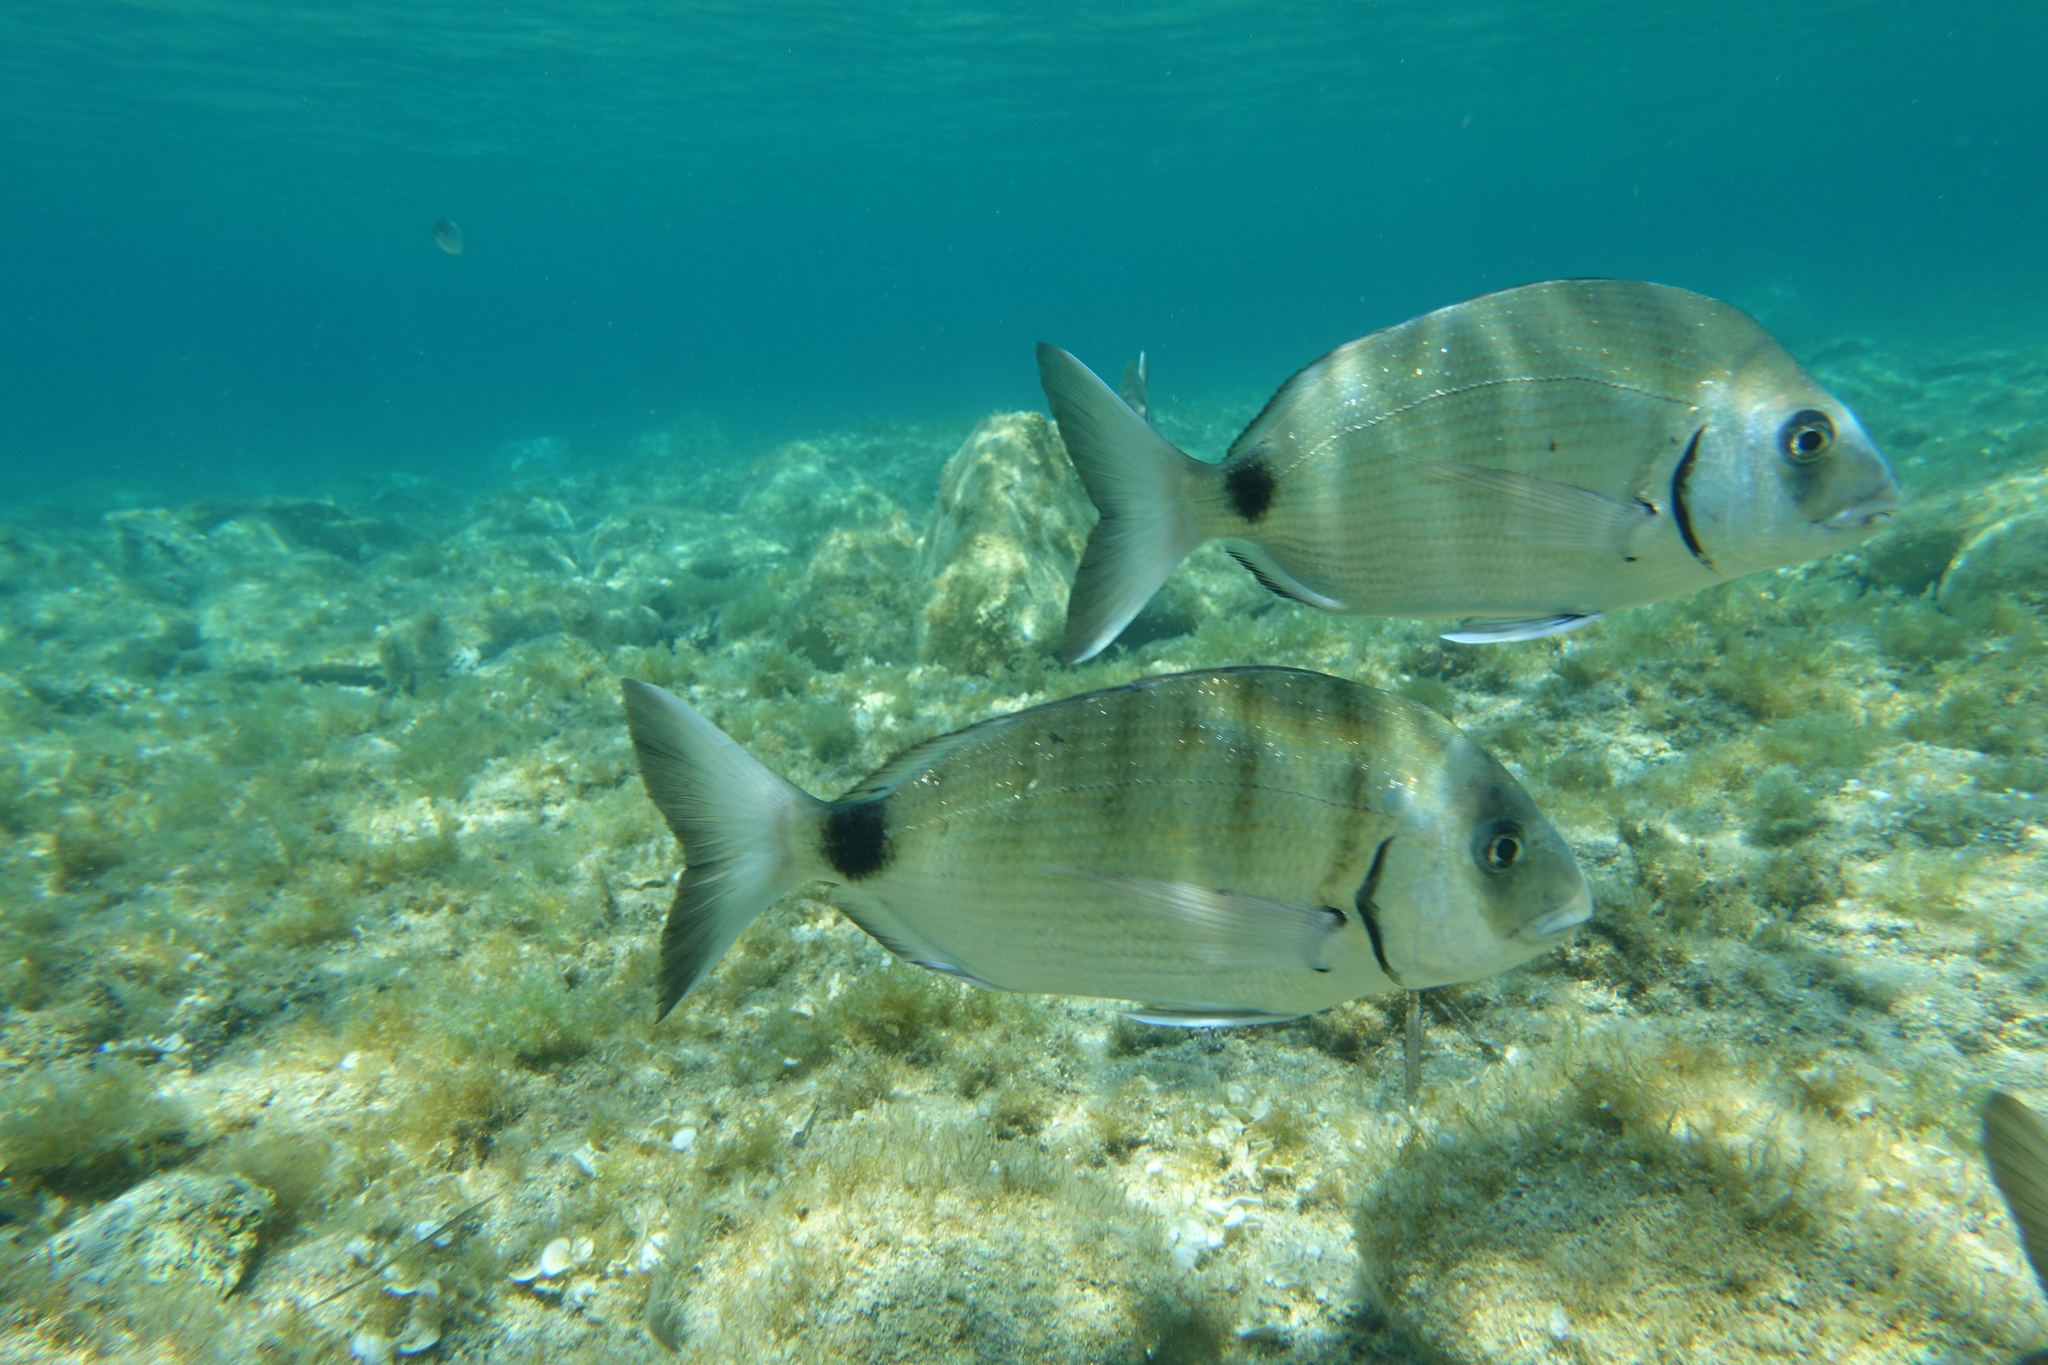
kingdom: Animalia
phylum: Chordata
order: Perciformes
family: Sparidae
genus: Diplodus
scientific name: Diplodus sargus
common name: White seabream
